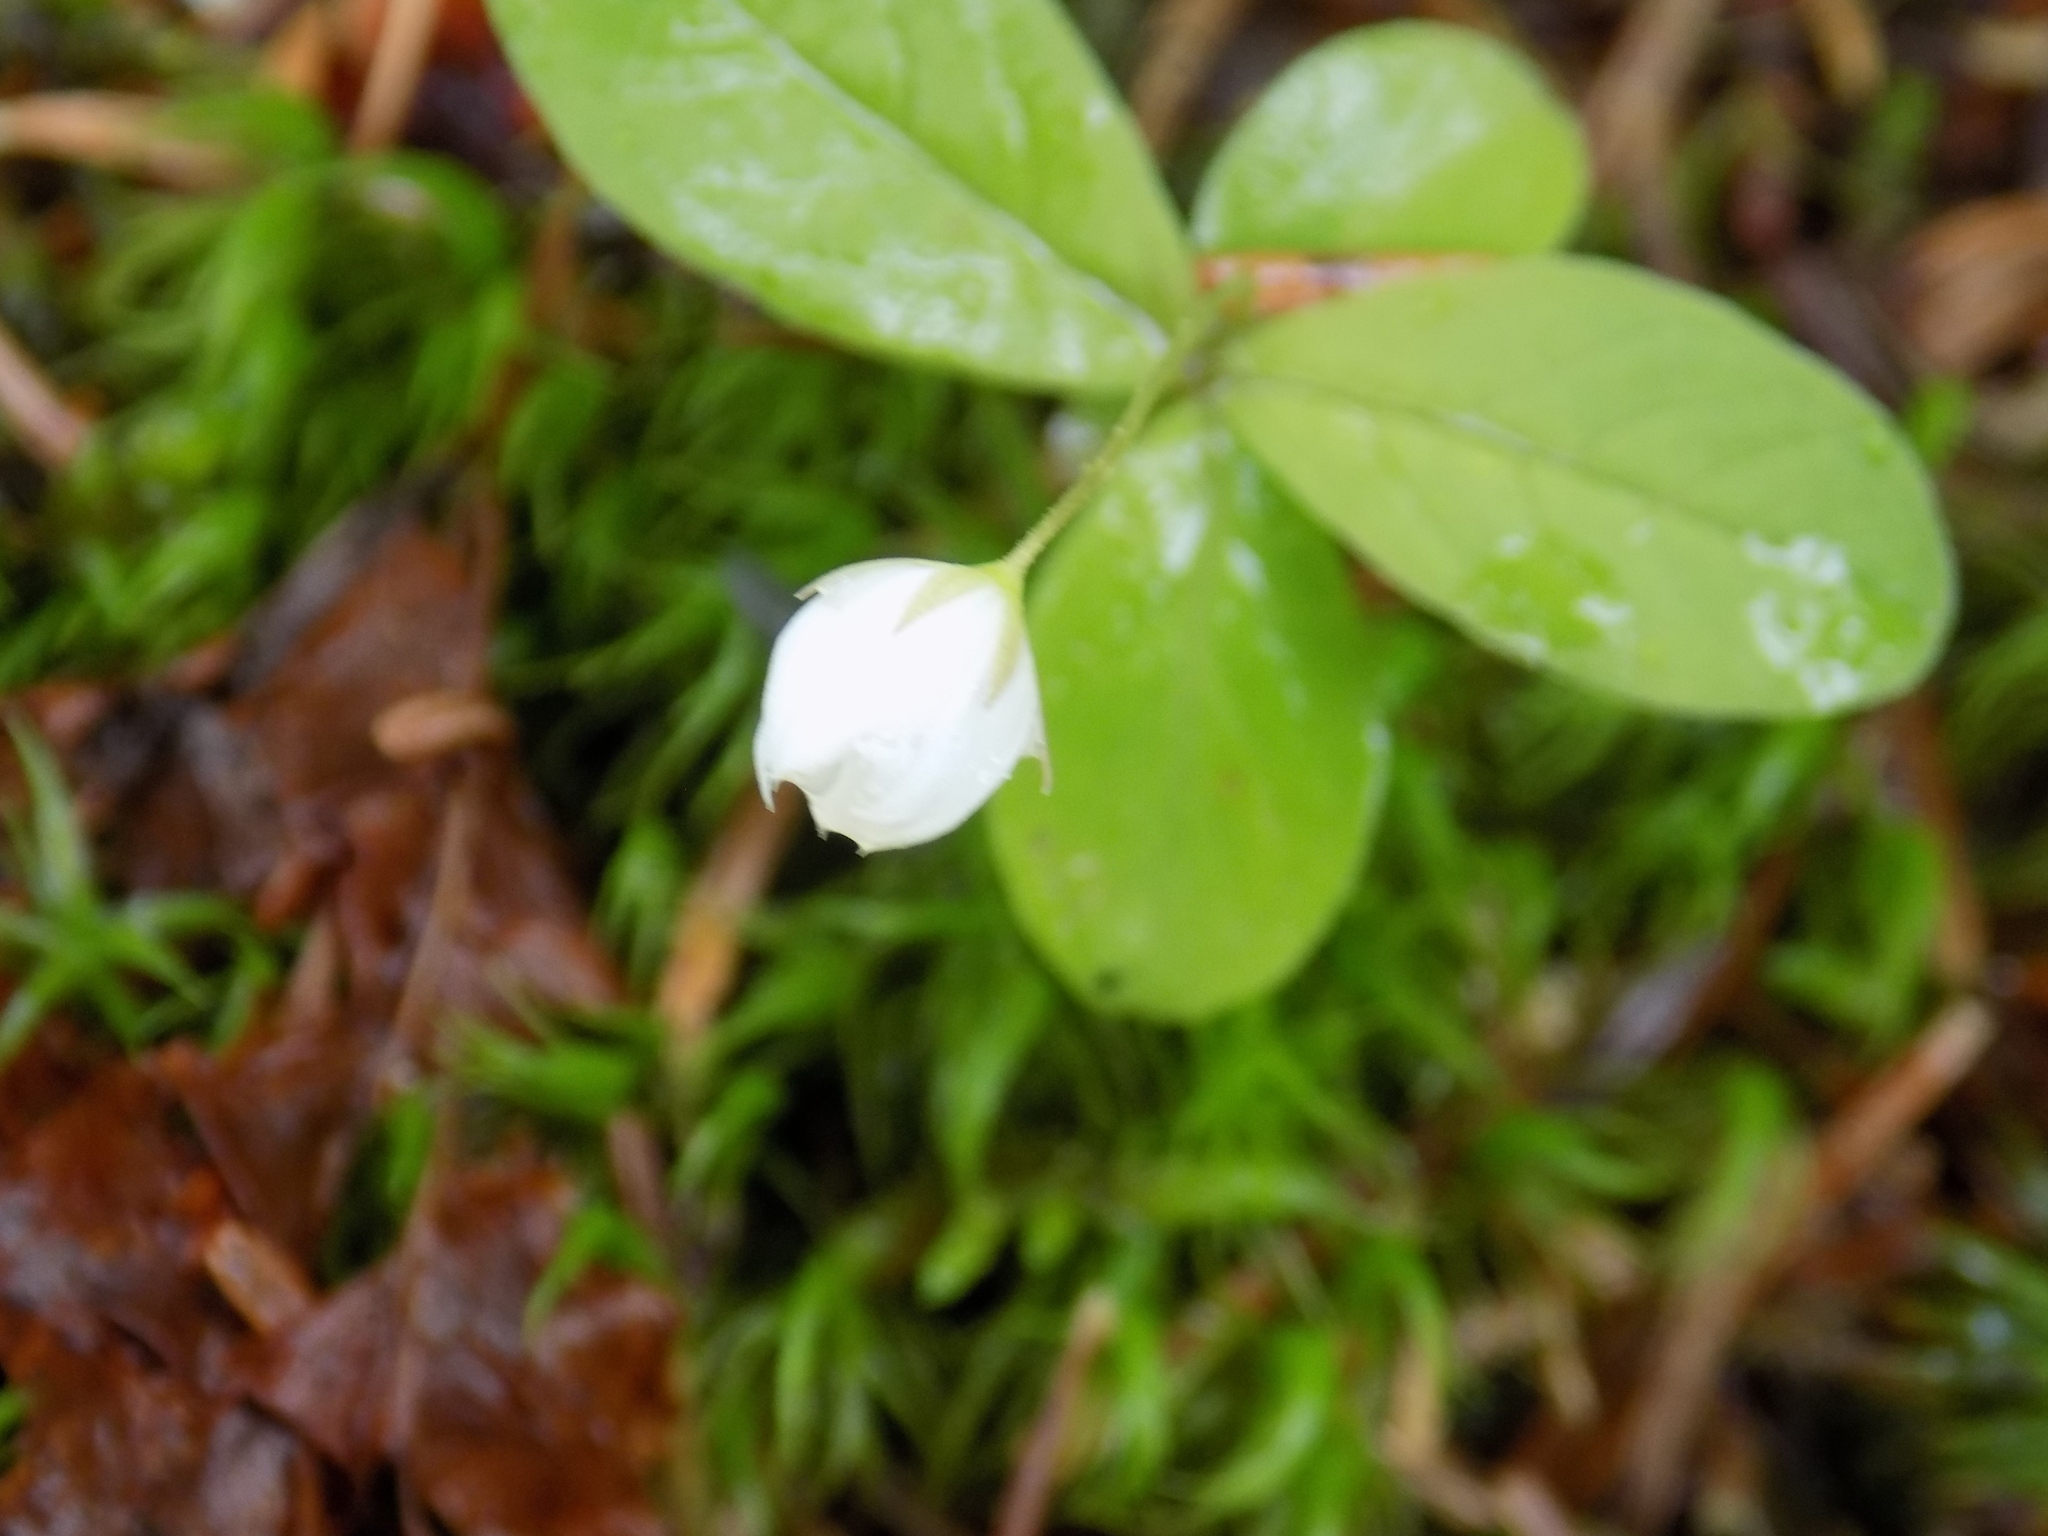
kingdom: Plantae
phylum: Tracheophyta
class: Magnoliopsida
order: Ericales
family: Primulaceae
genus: Lysimachia
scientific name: Lysimachia europaea
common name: Arctic starflower
